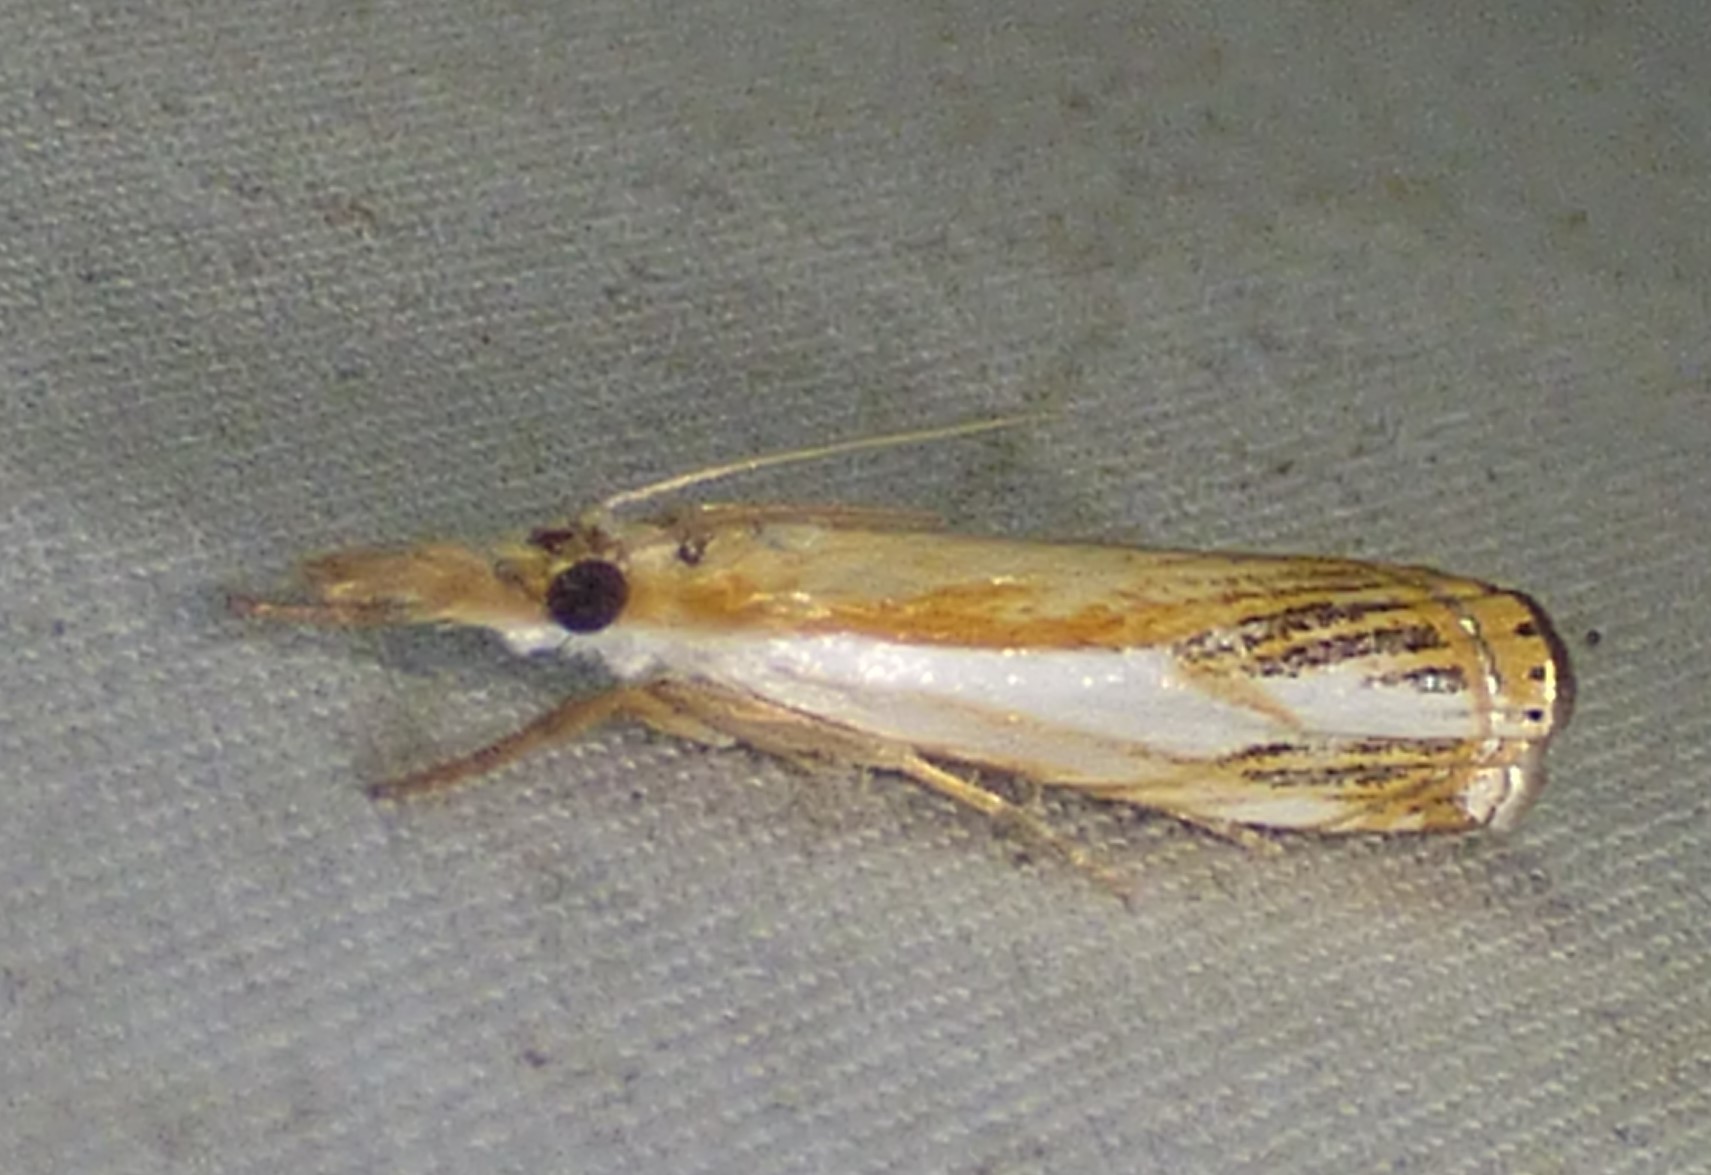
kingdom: Animalia
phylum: Arthropoda
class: Insecta
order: Lepidoptera
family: Crambidae
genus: Crambus
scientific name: Crambus agitatellus
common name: Double-banded grass-veneer
